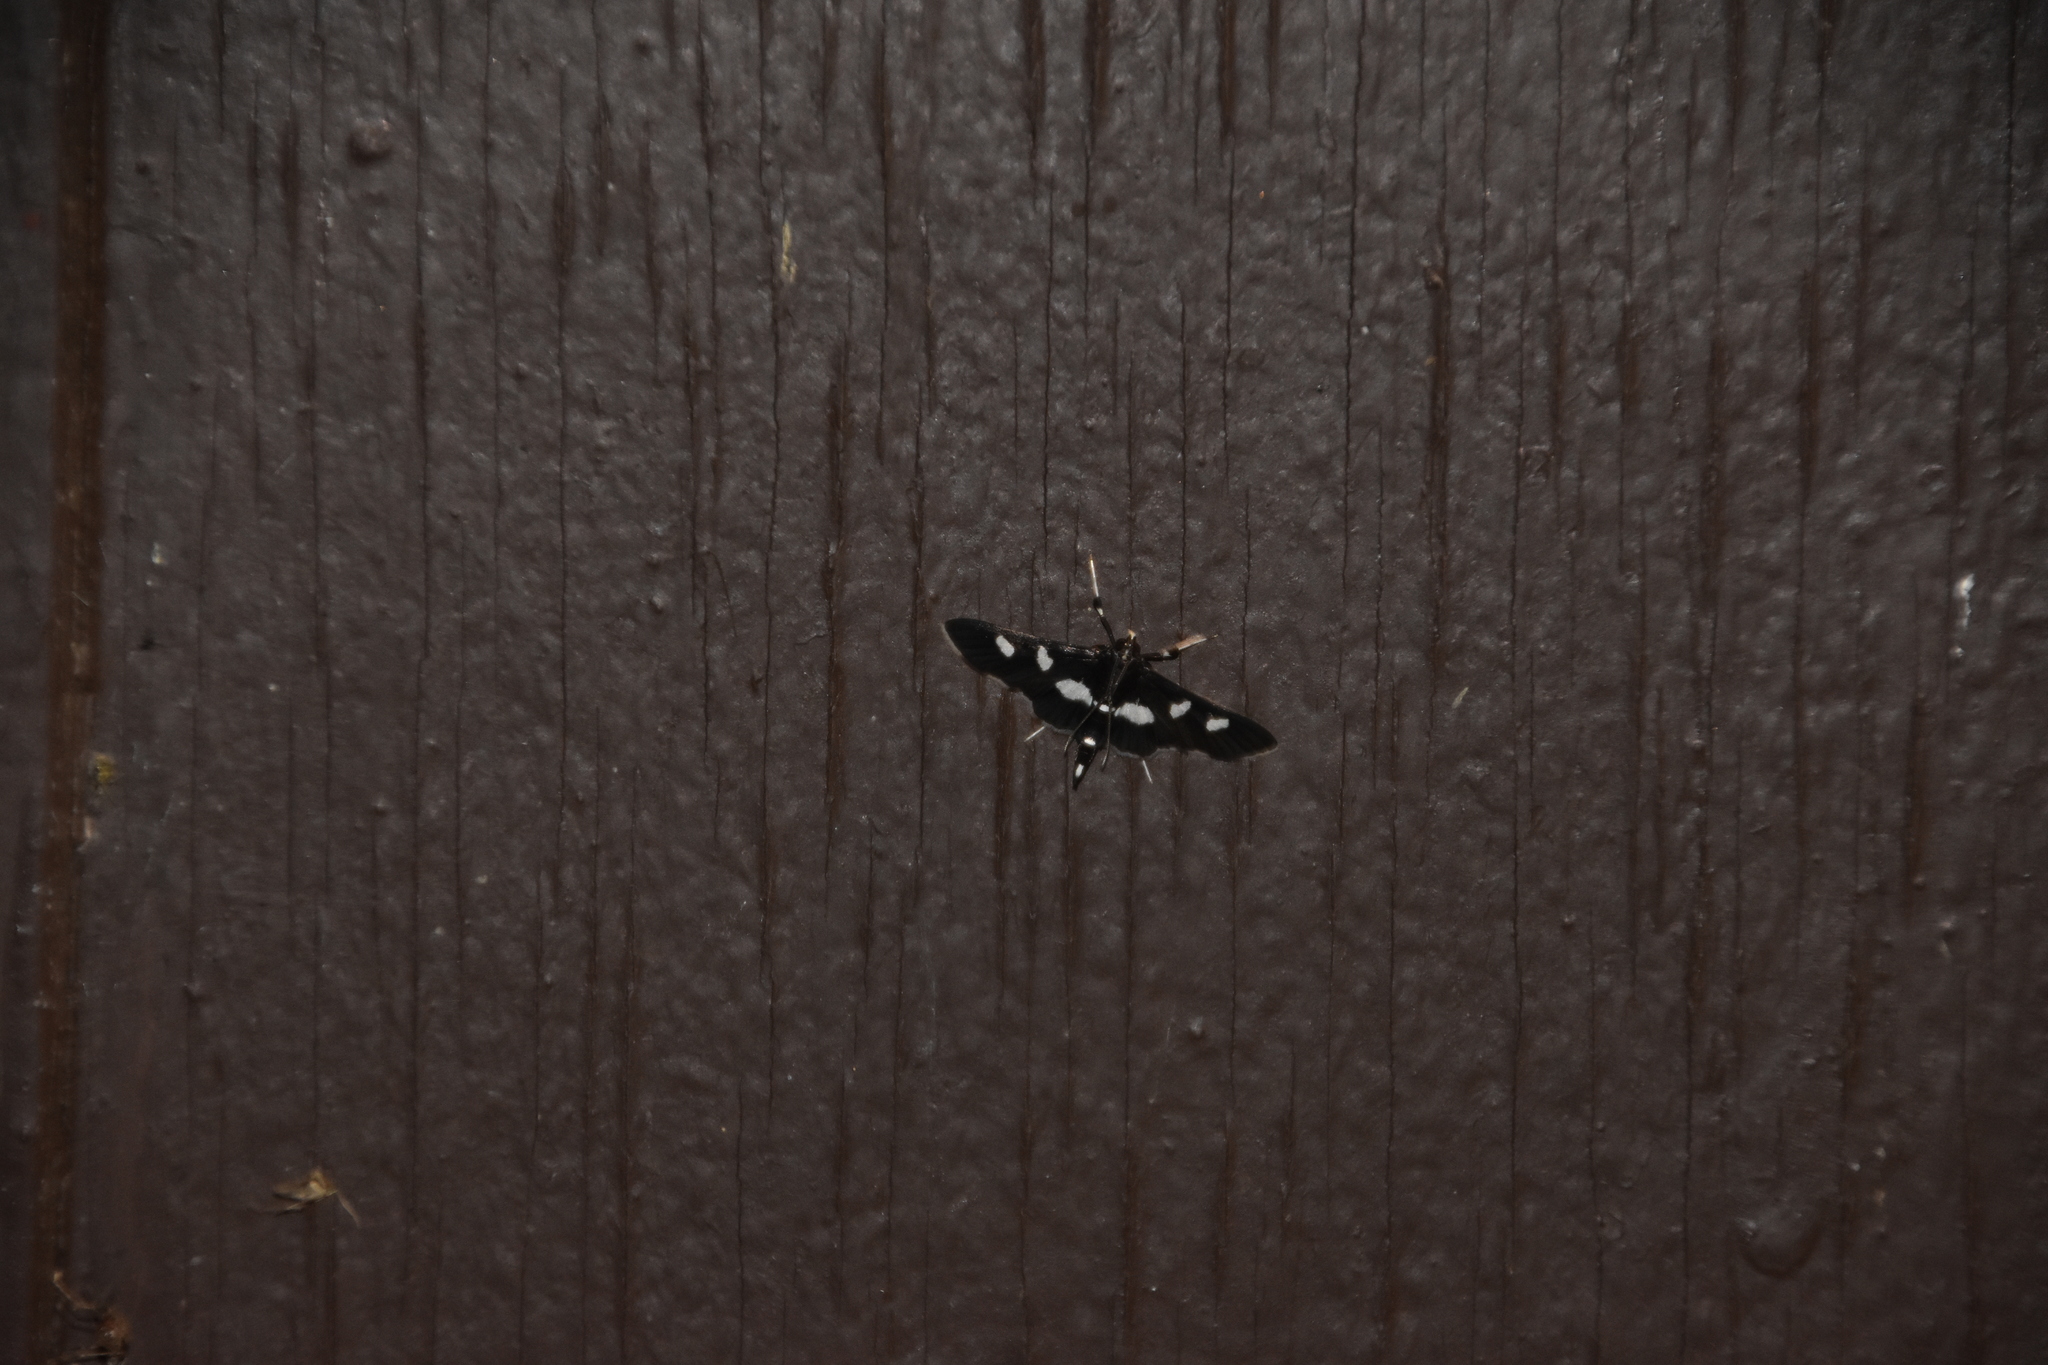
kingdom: Animalia
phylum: Arthropoda
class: Insecta
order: Lepidoptera
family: Crambidae
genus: Desmia
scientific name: Desmia
